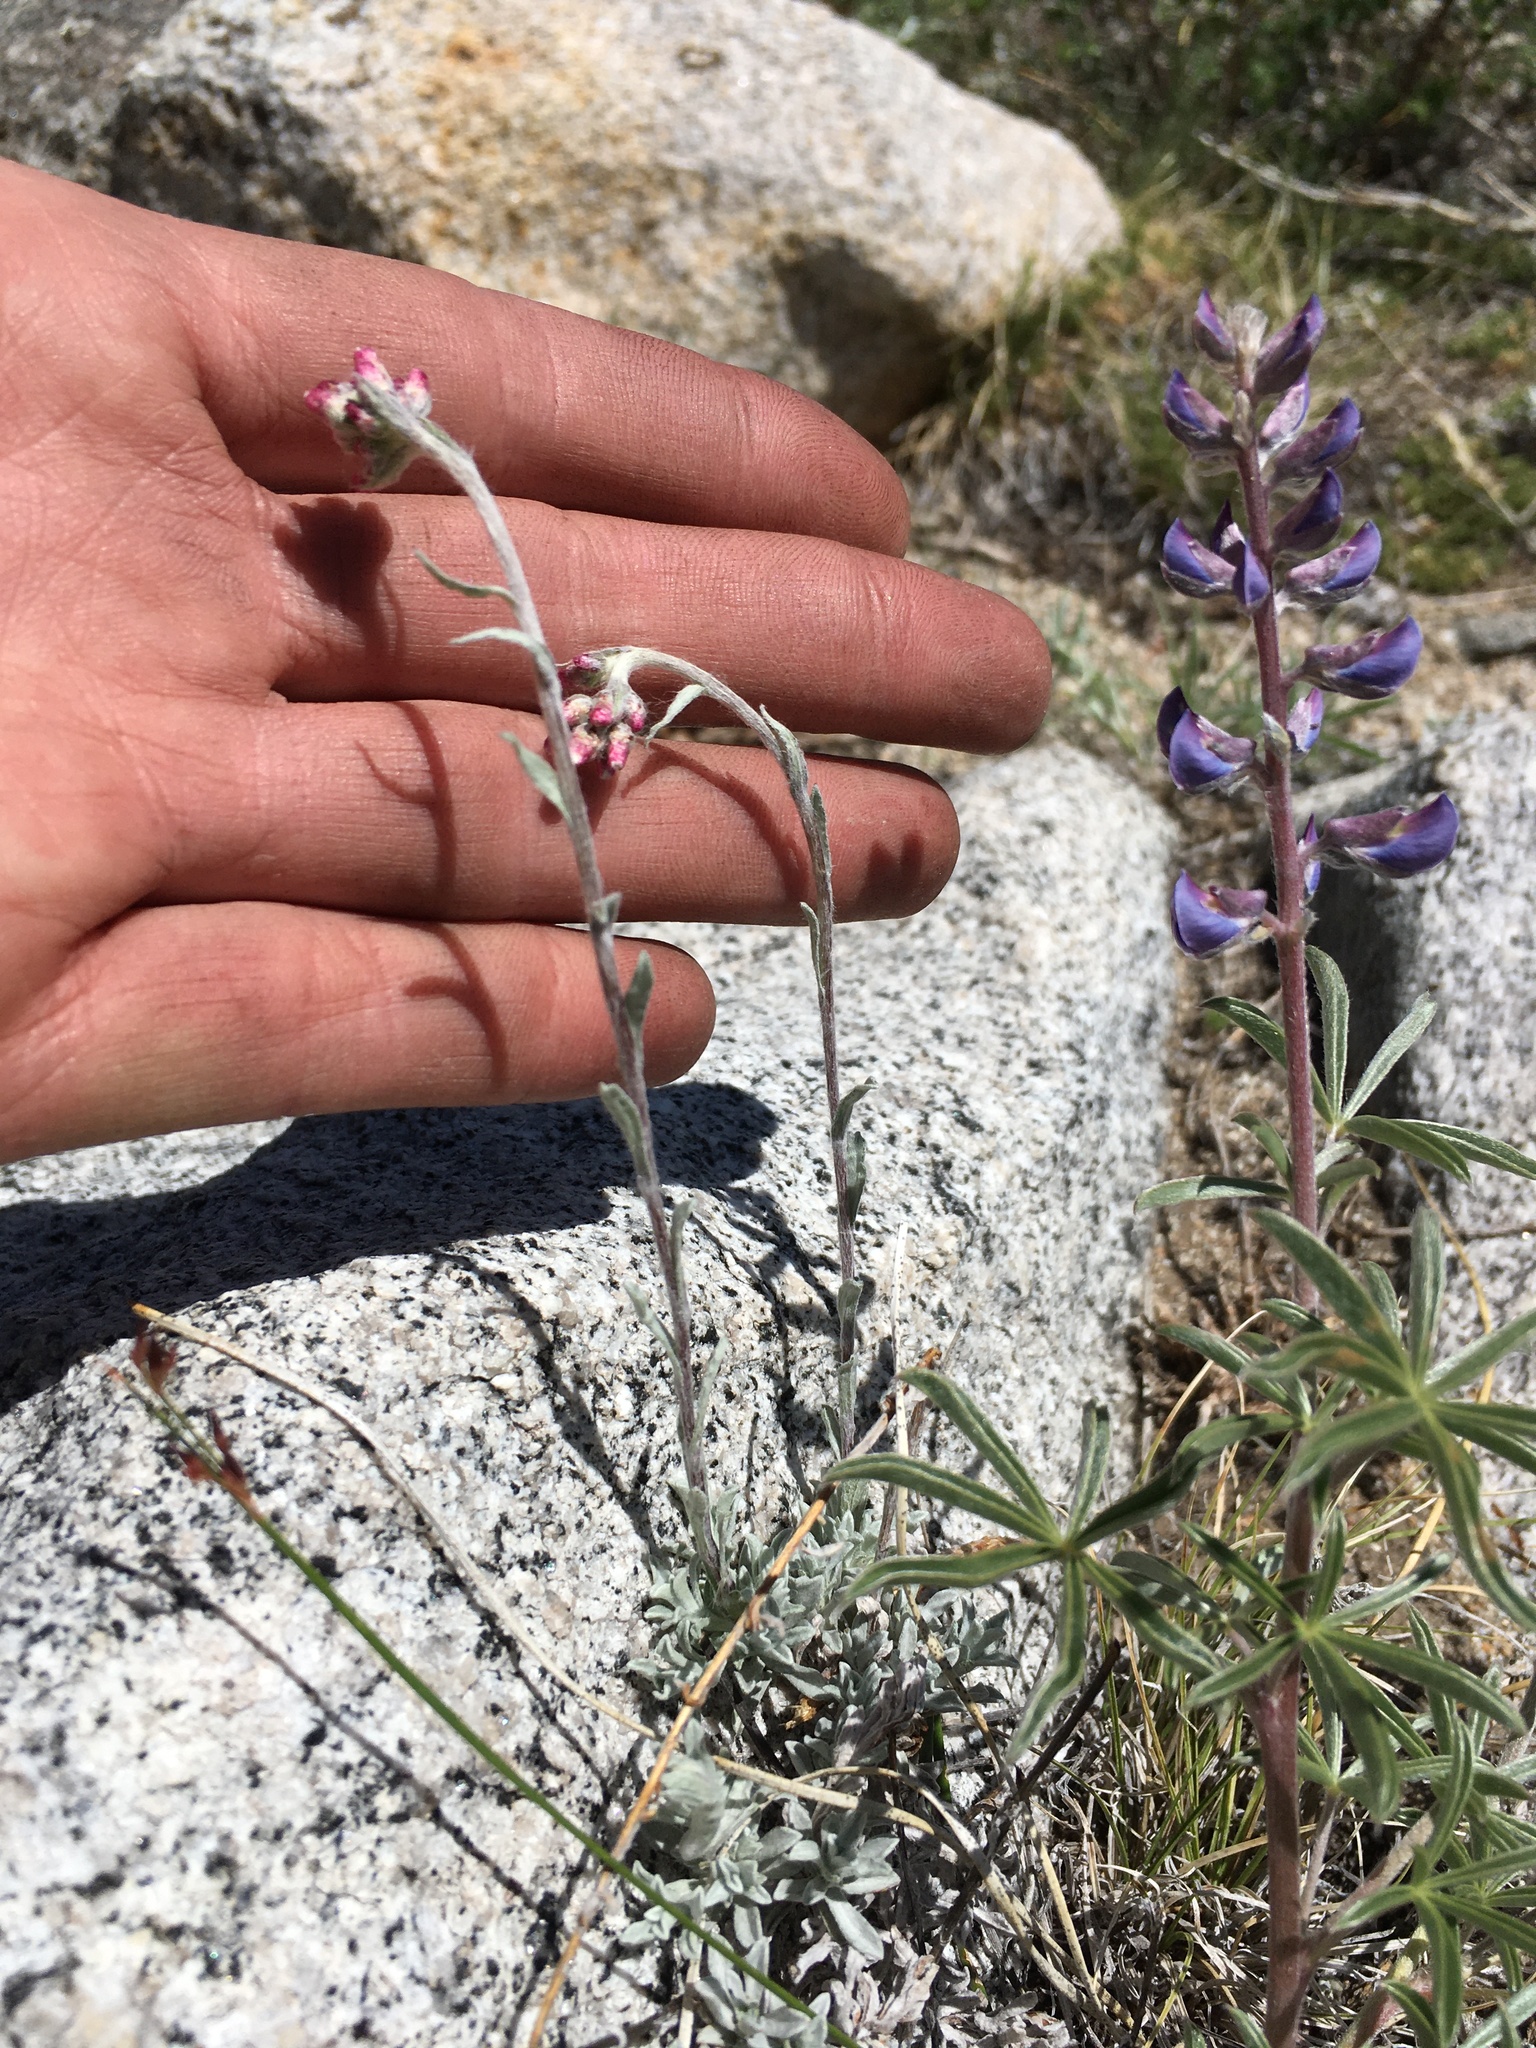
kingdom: Plantae
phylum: Tracheophyta
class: Magnoliopsida
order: Asterales
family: Asteraceae
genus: Antennaria
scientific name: Antennaria rosea
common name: Rosy pussytoes
